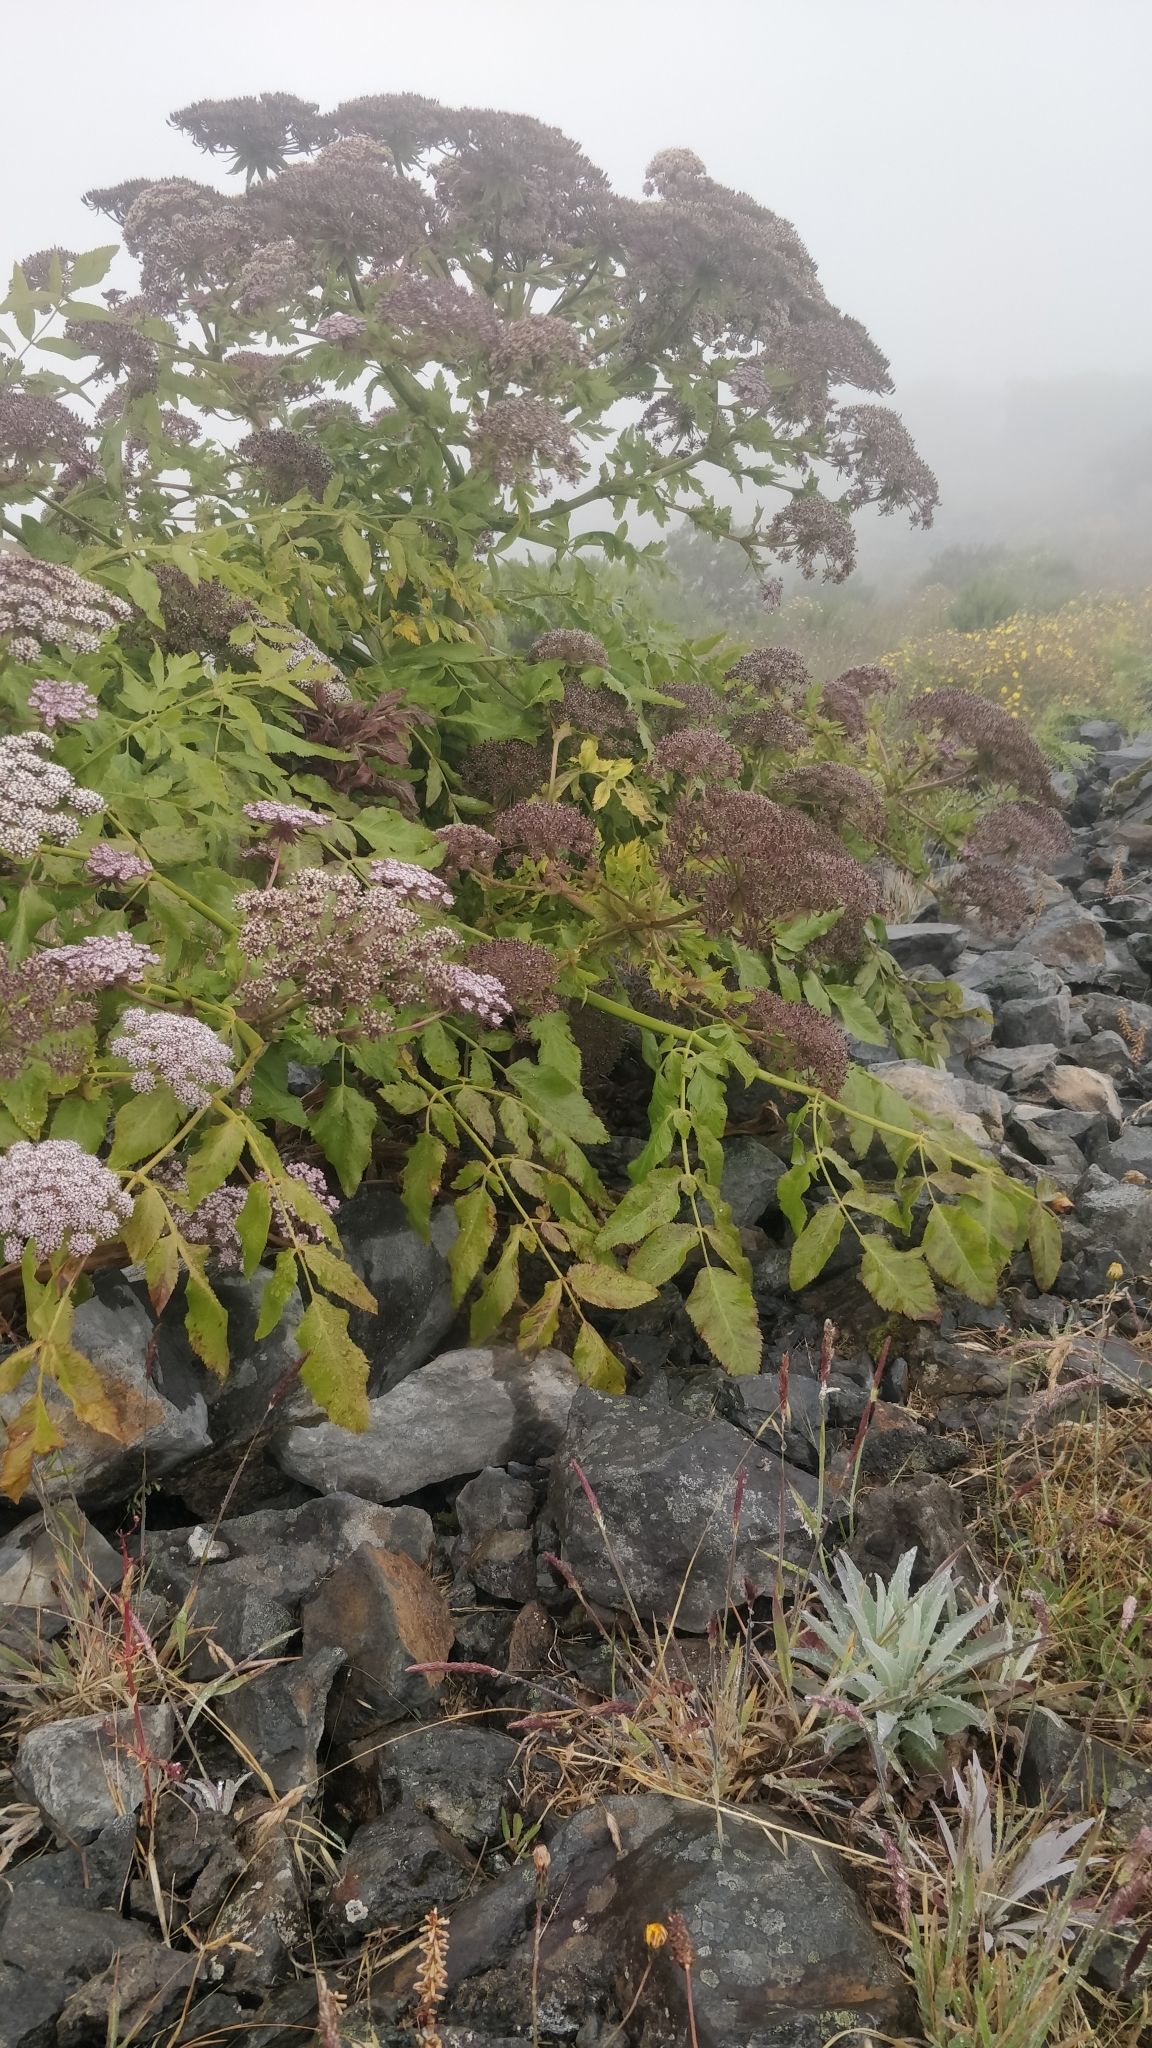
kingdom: Plantae
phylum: Tracheophyta
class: Magnoliopsida
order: Apiales
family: Apiaceae
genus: Daucus
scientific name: Daucus decipiens
